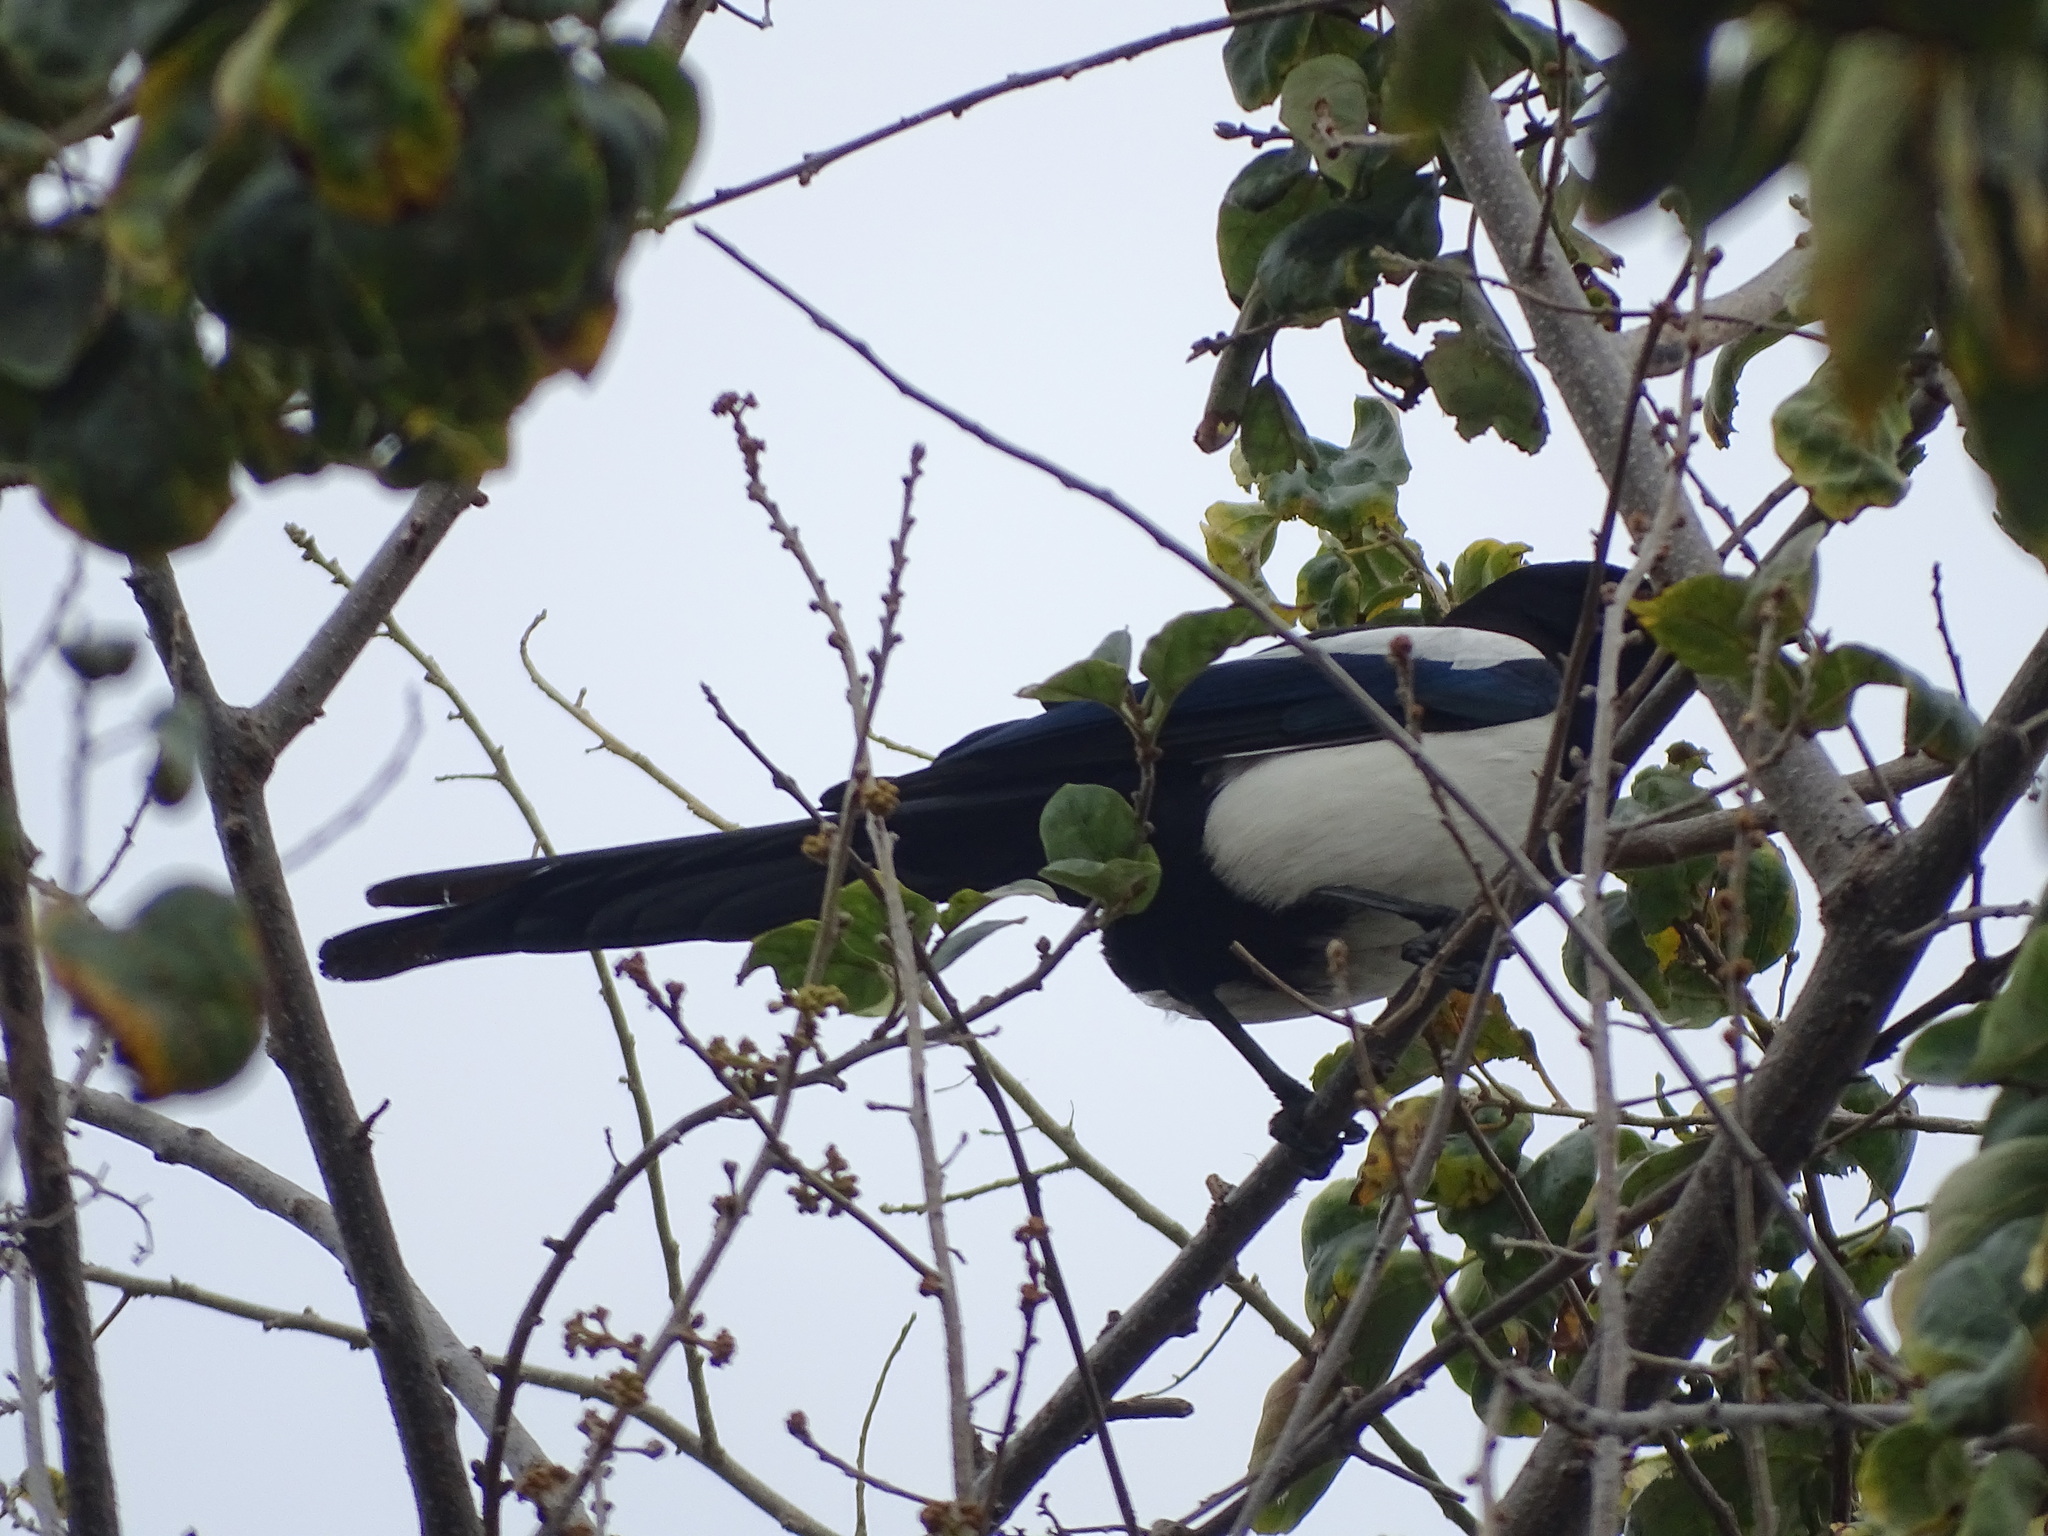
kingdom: Animalia
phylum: Chordata
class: Aves
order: Passeriformes
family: Corvidae
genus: Pica
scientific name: Pica serica
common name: Oriental magpie
